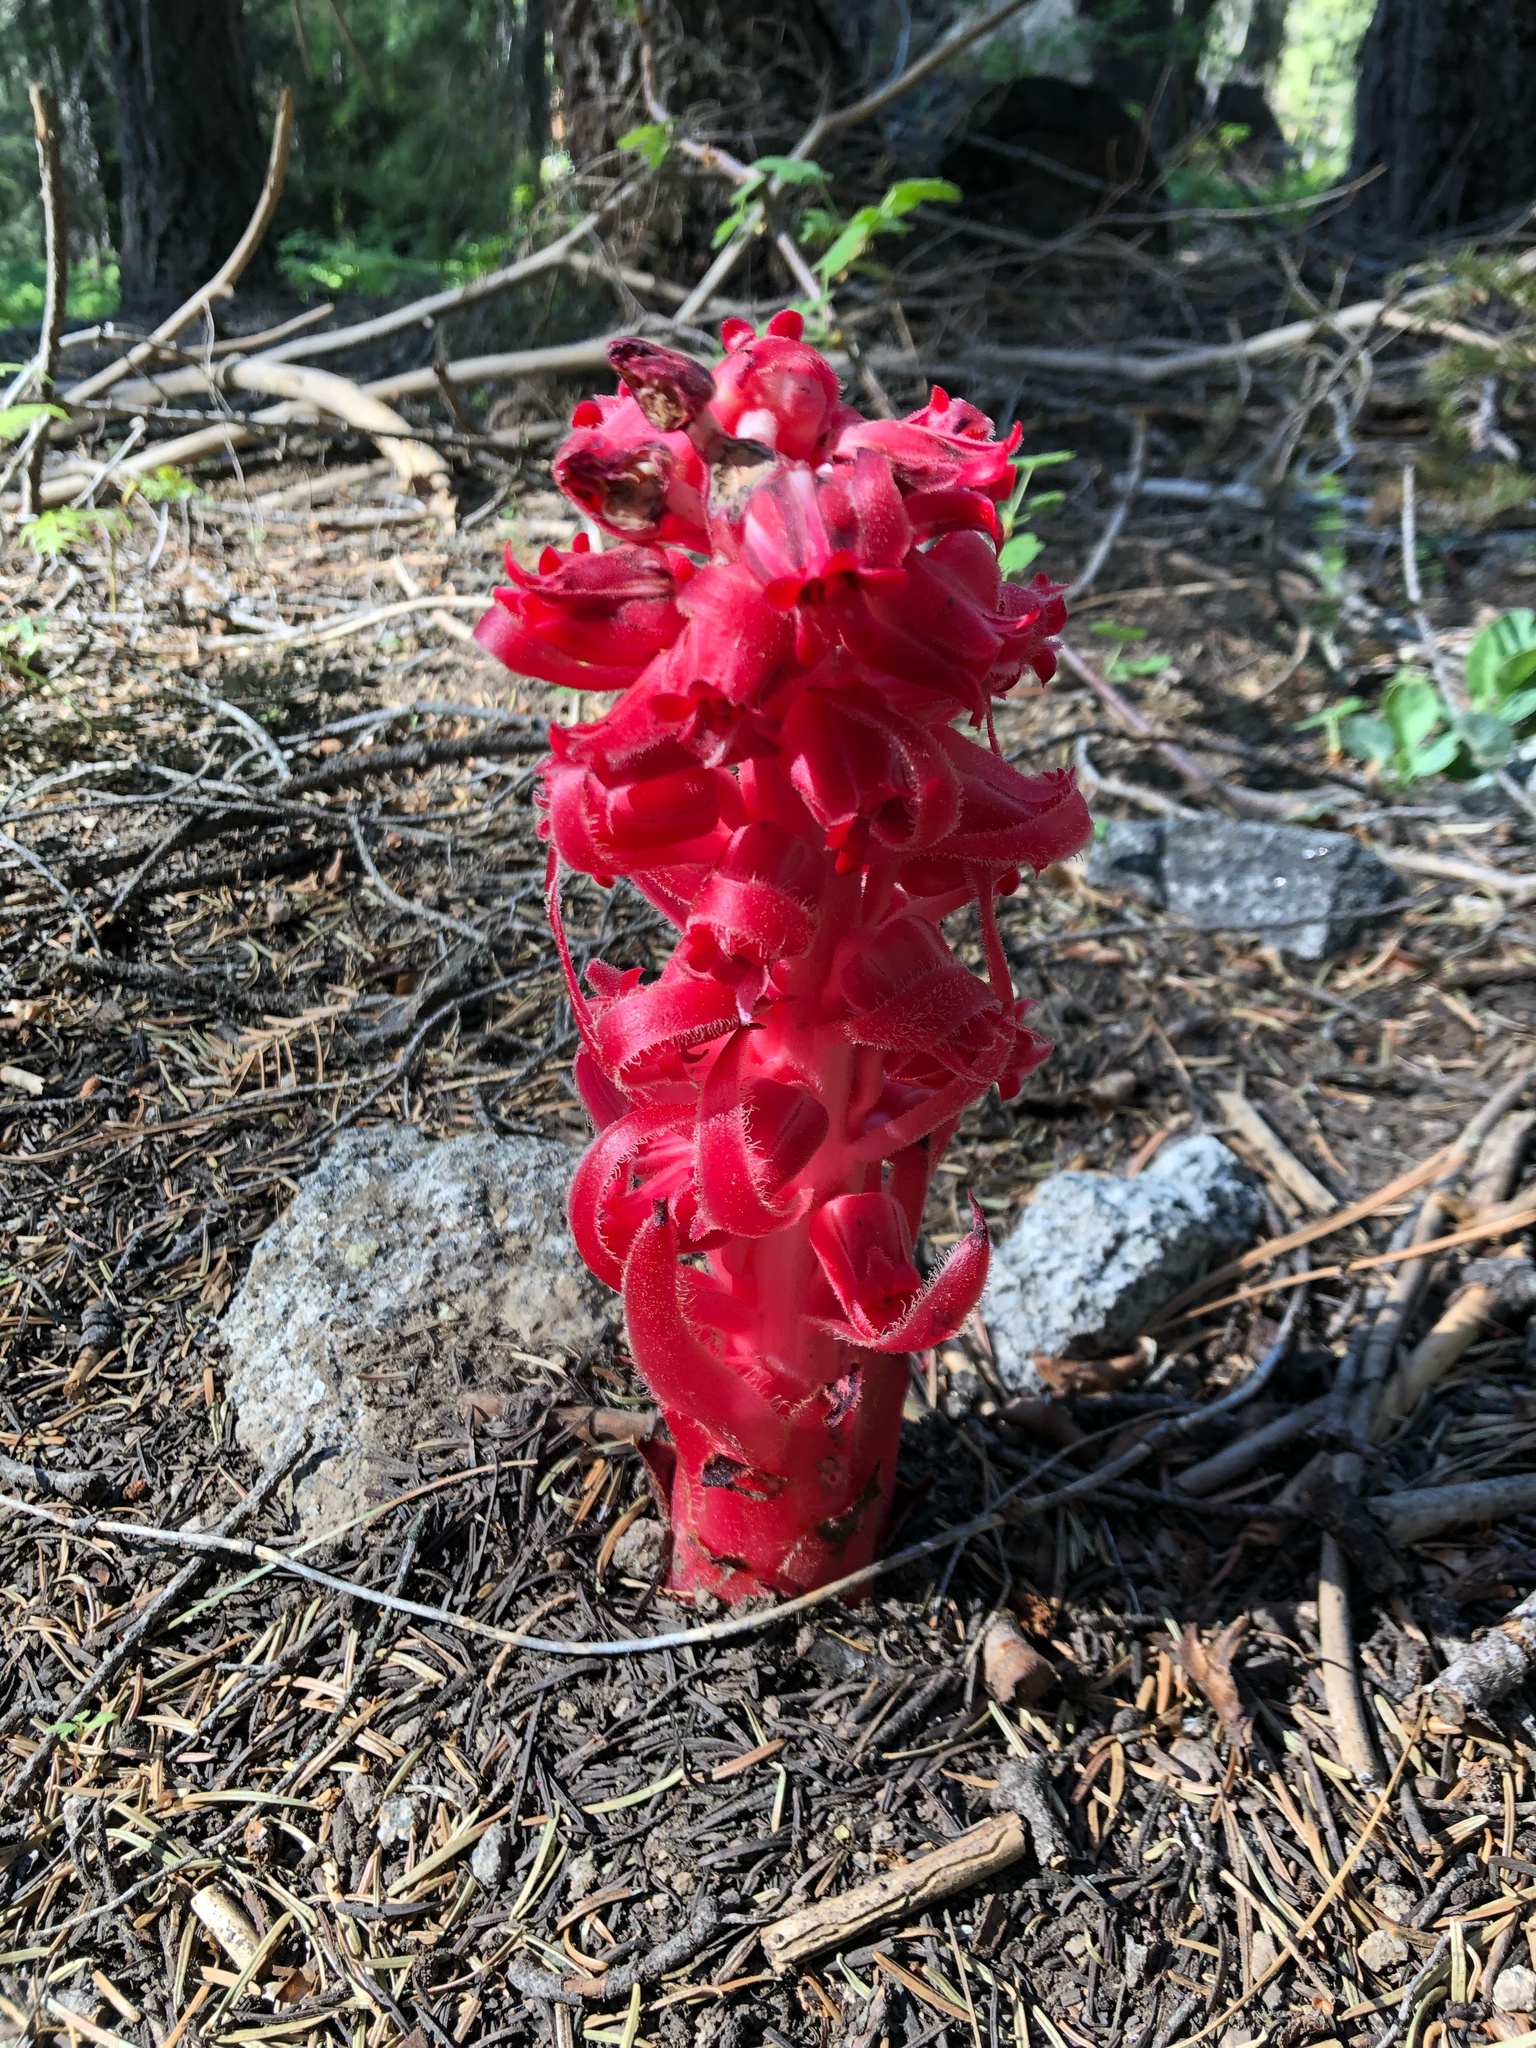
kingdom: Plantae
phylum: Tracheophyta
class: Magnoliopsida
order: Ericales
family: Ericaceae
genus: Sarcodes
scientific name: Sarcodes sanguinea
